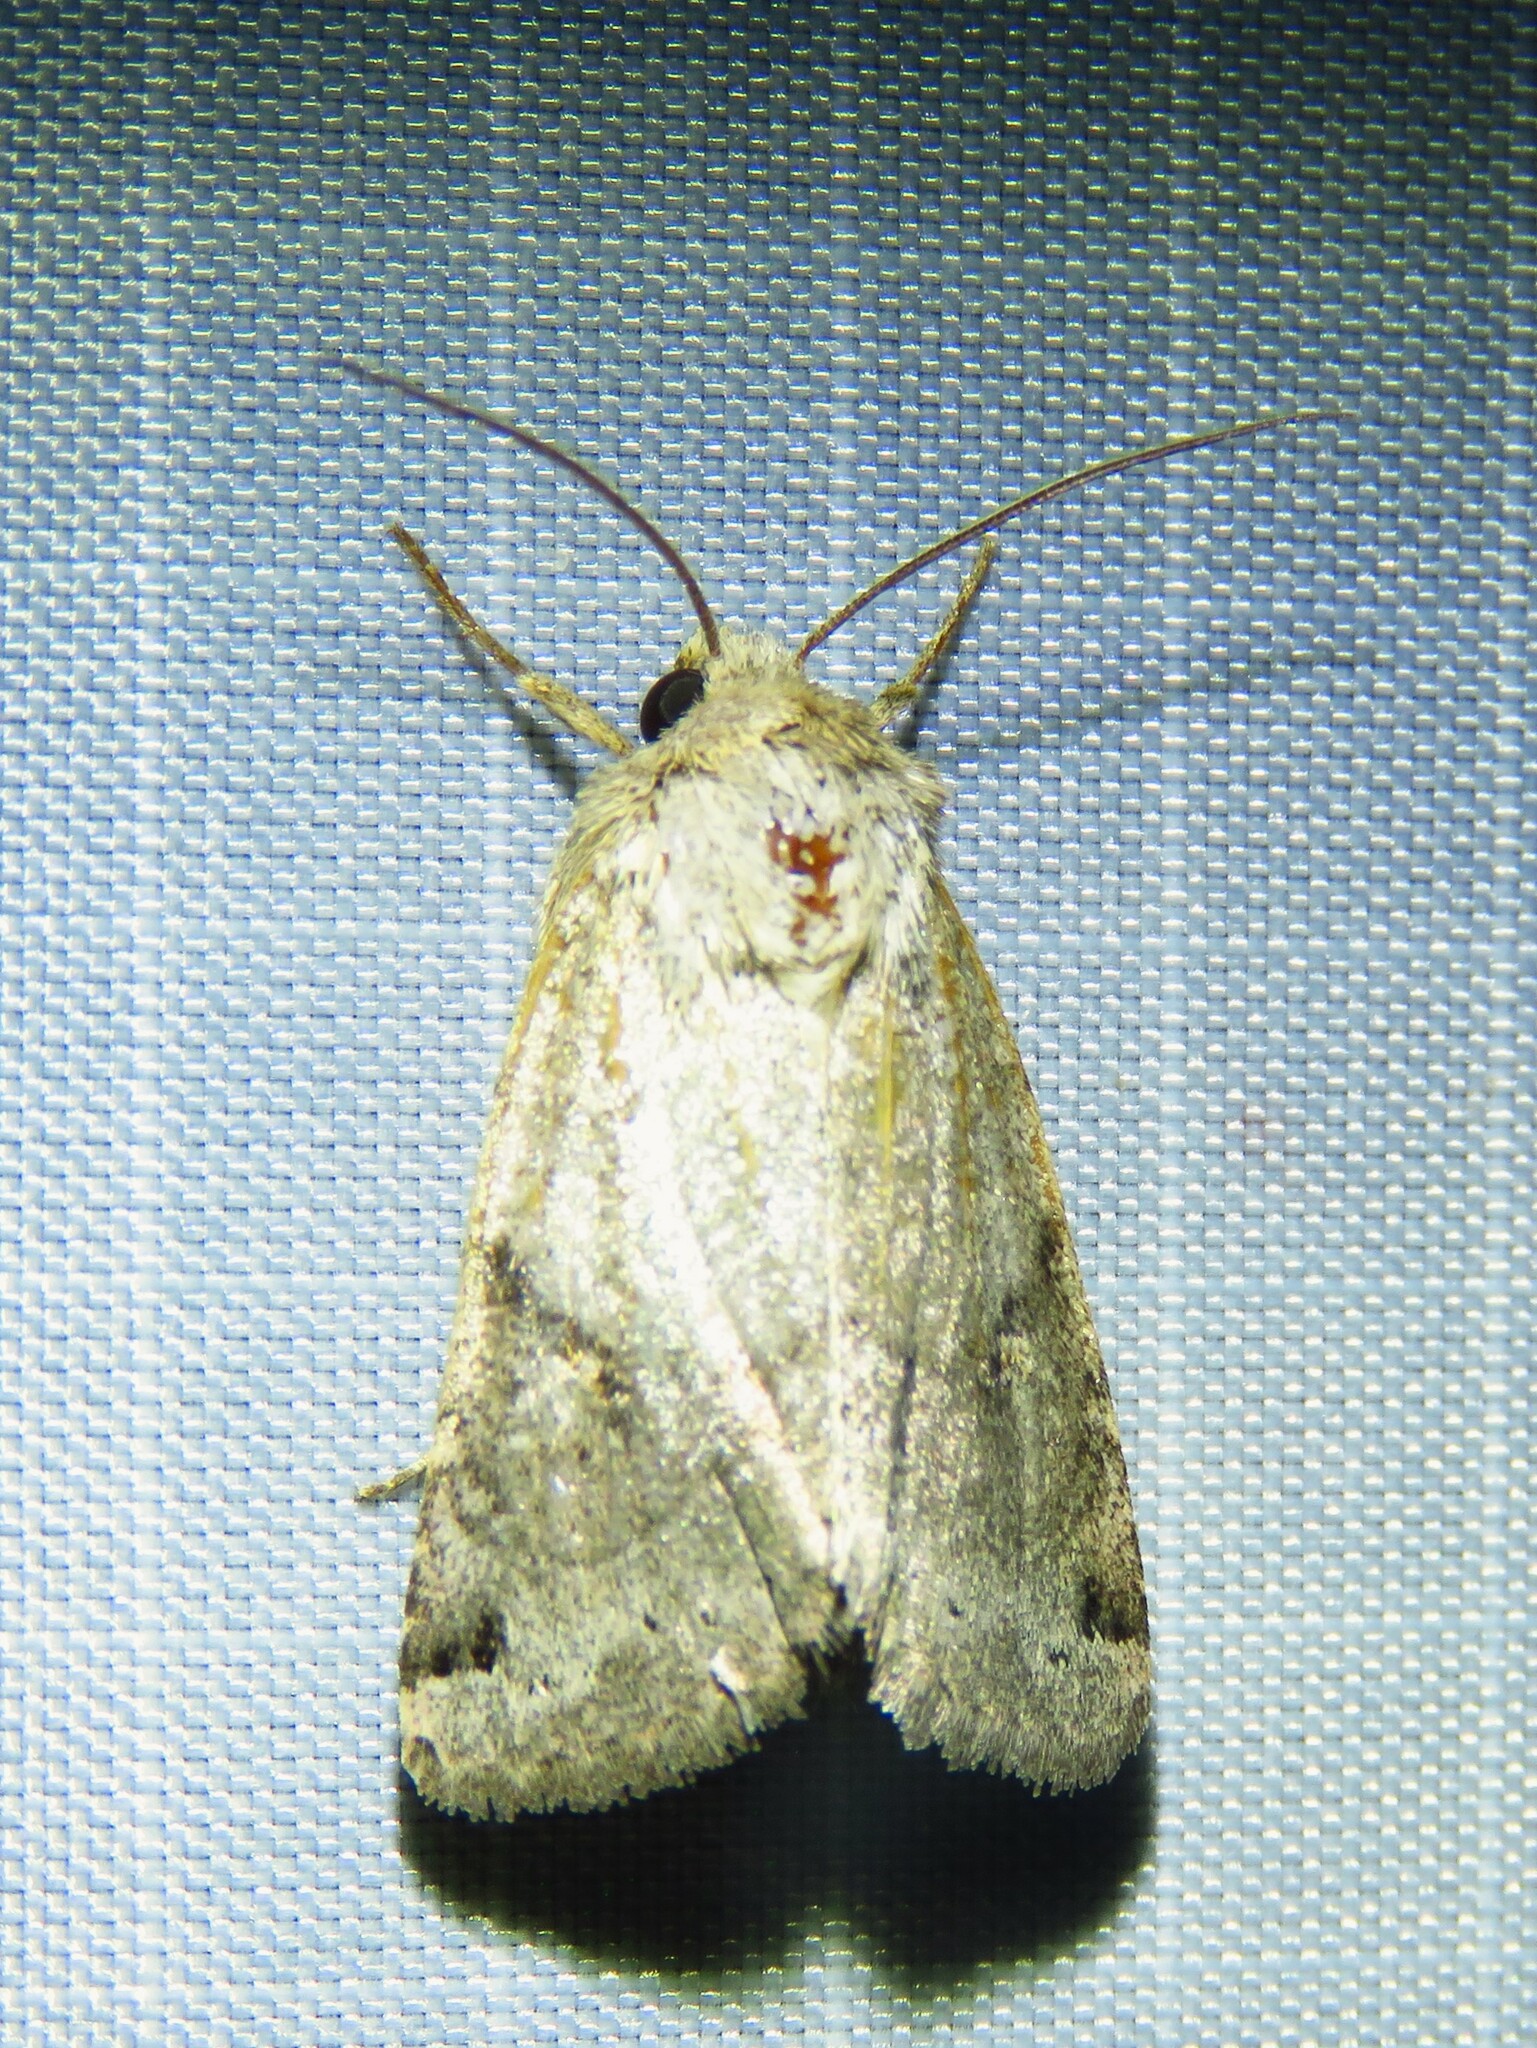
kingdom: Animalia
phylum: Arthropoda
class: Insecta
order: Lepidoptera
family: Noctuidae
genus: Ulolonche
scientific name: Ulolonche disticha
